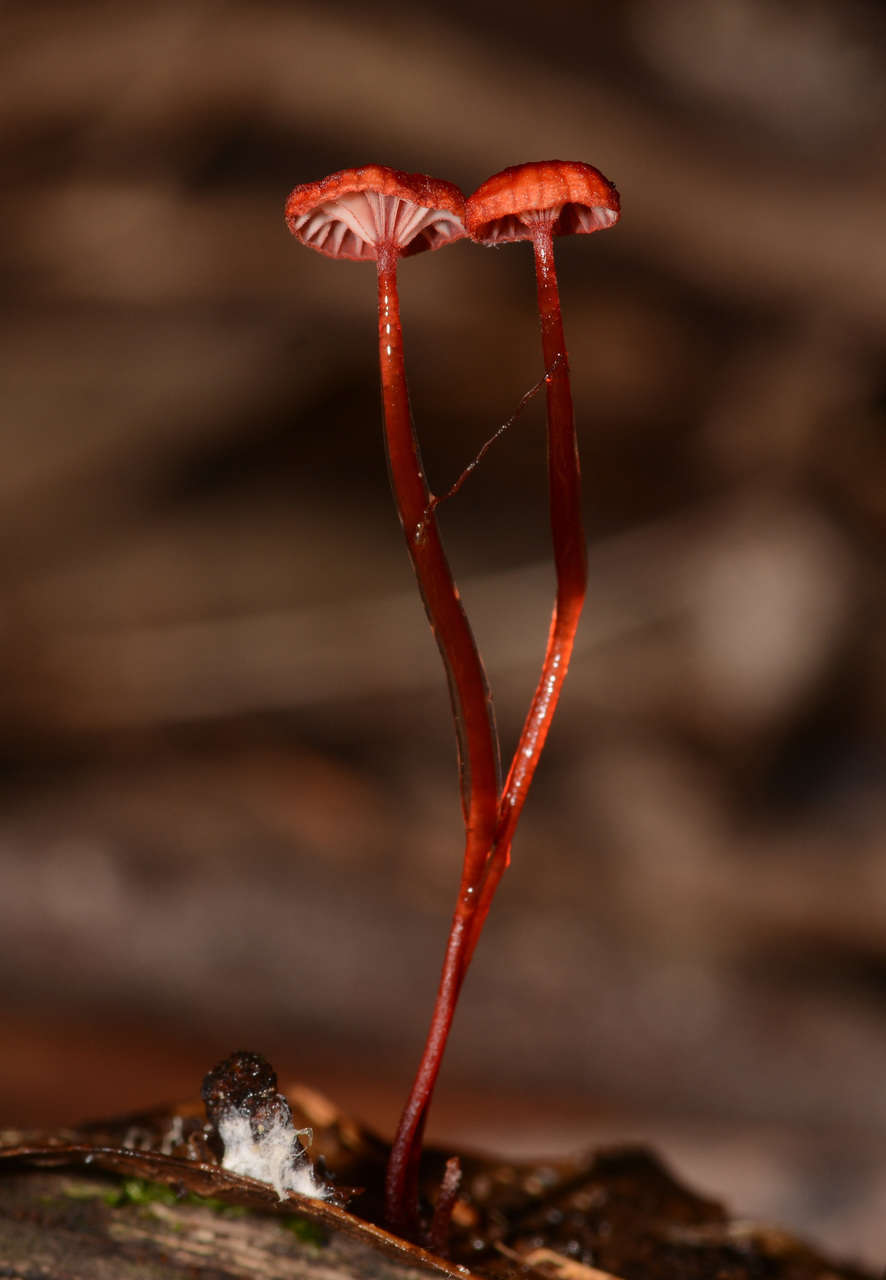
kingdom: Fungi
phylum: Basidiomycota
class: Agaricomycetes
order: Agaricales
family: Mycenaceae
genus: Cruentomycena
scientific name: Cruentomycena viscidocruenta
